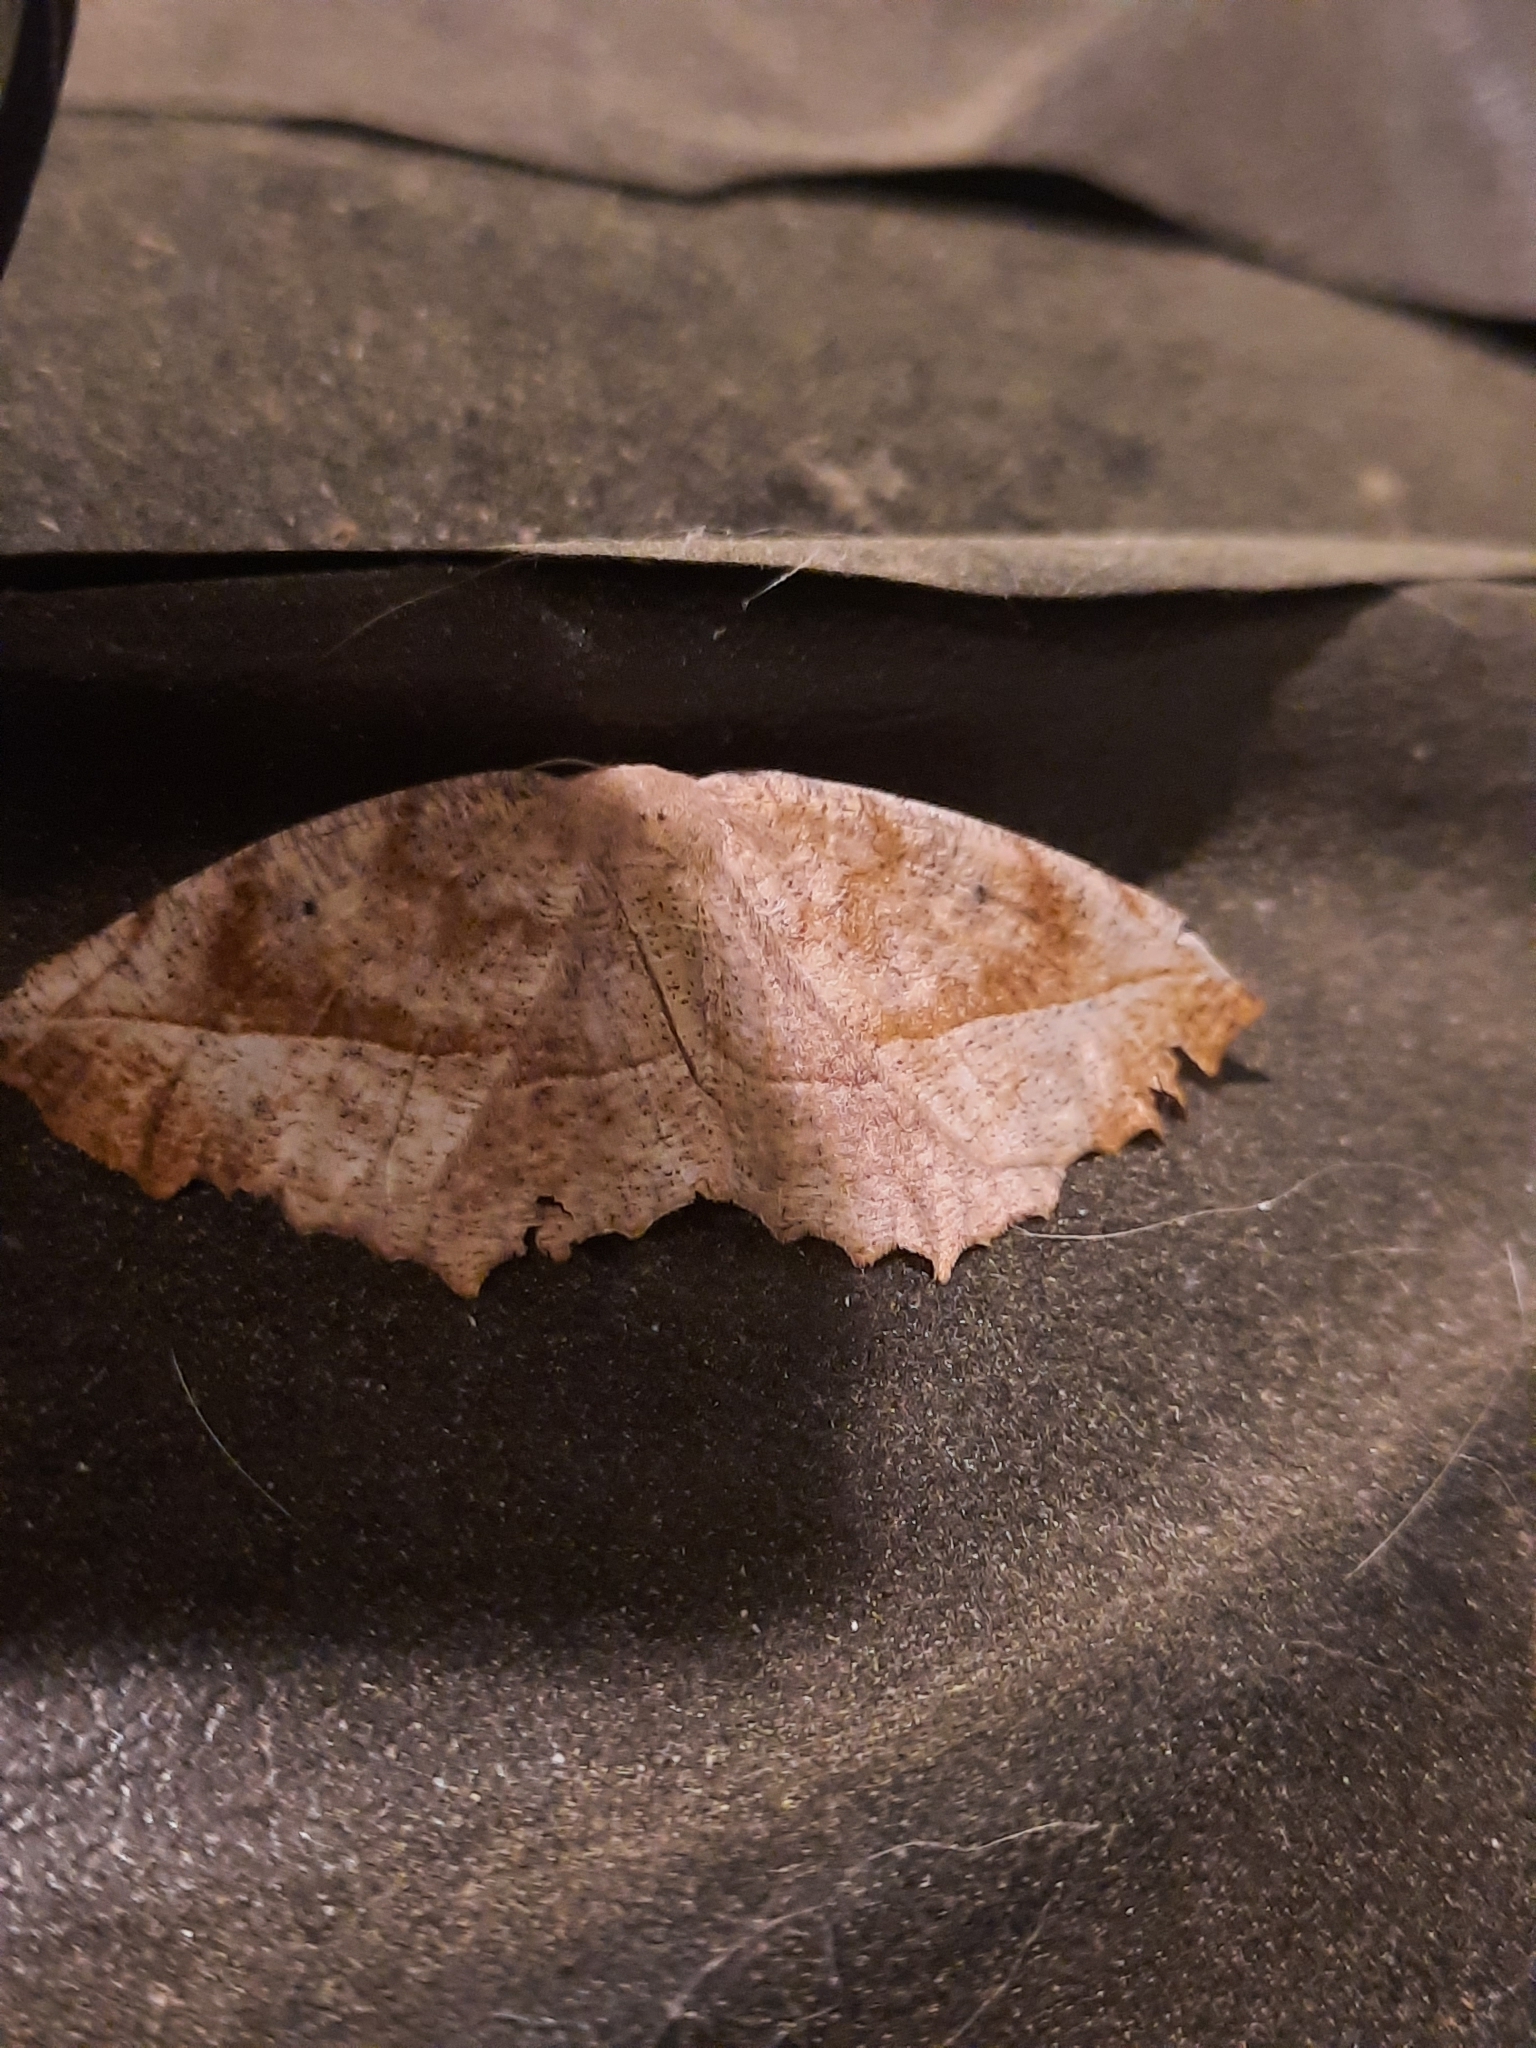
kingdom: Animalia
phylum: Arthropoda
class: Insecta
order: Lepidoptera
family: Geometridae
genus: Eutrapela
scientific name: Eutrapela clemataria
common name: Curved-toothed geometer
